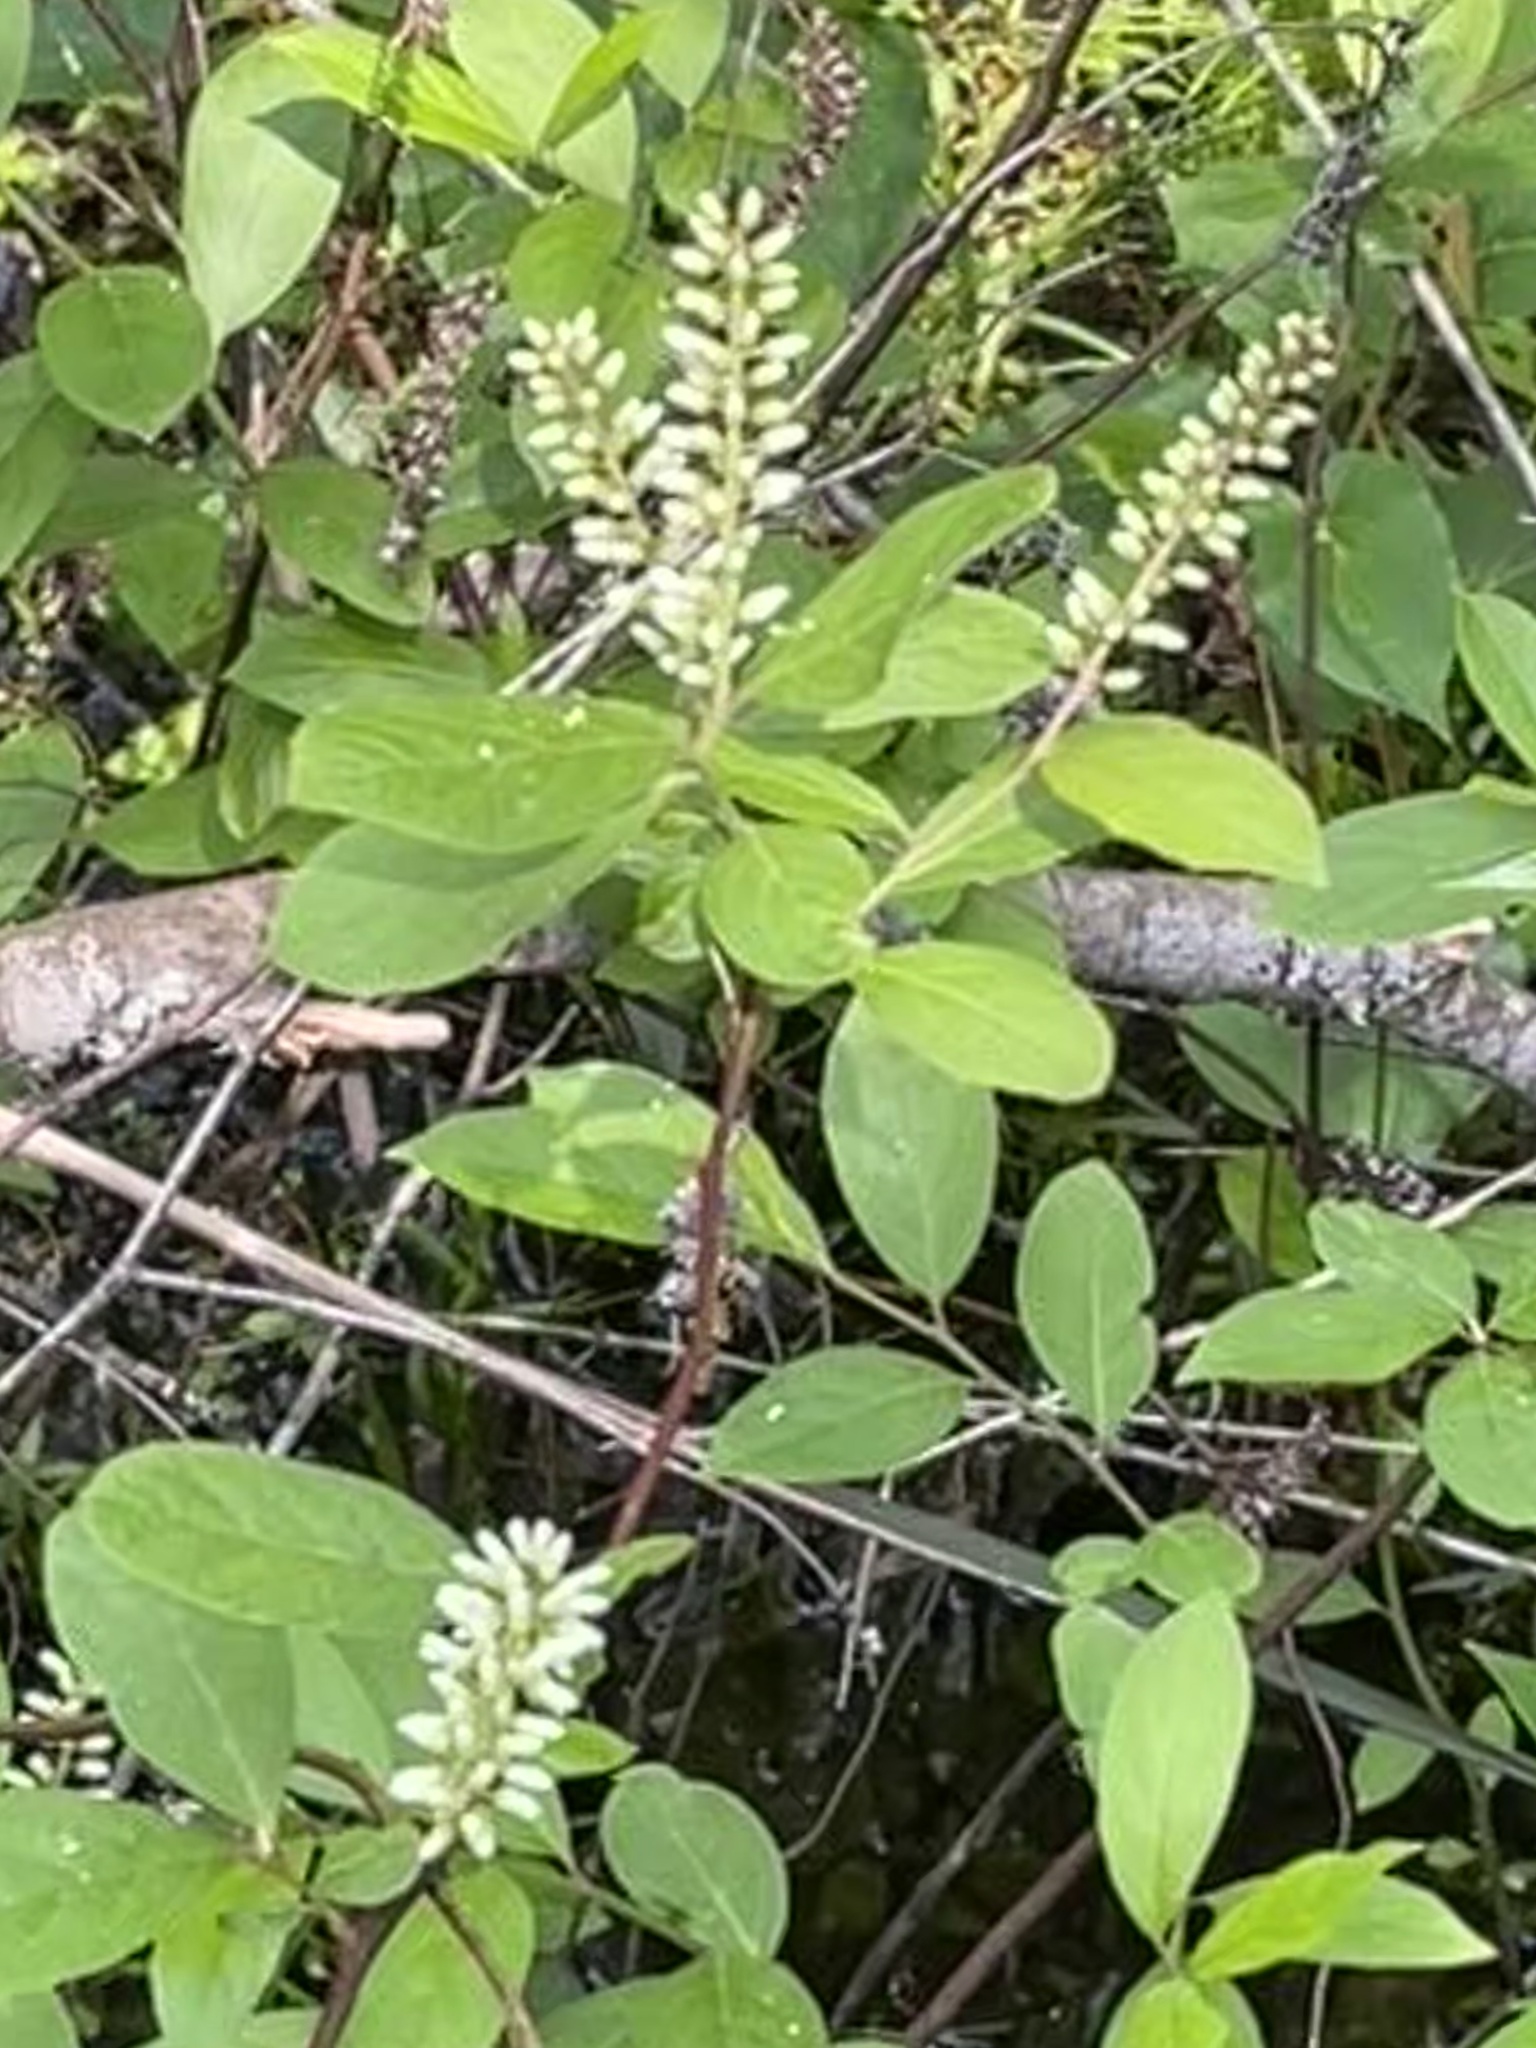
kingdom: Plantae
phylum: Tracheophyta
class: Magnoliopsida
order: Saxifragales
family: Iteaceae
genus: Itea
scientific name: Itea virginica
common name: Sweetspire
